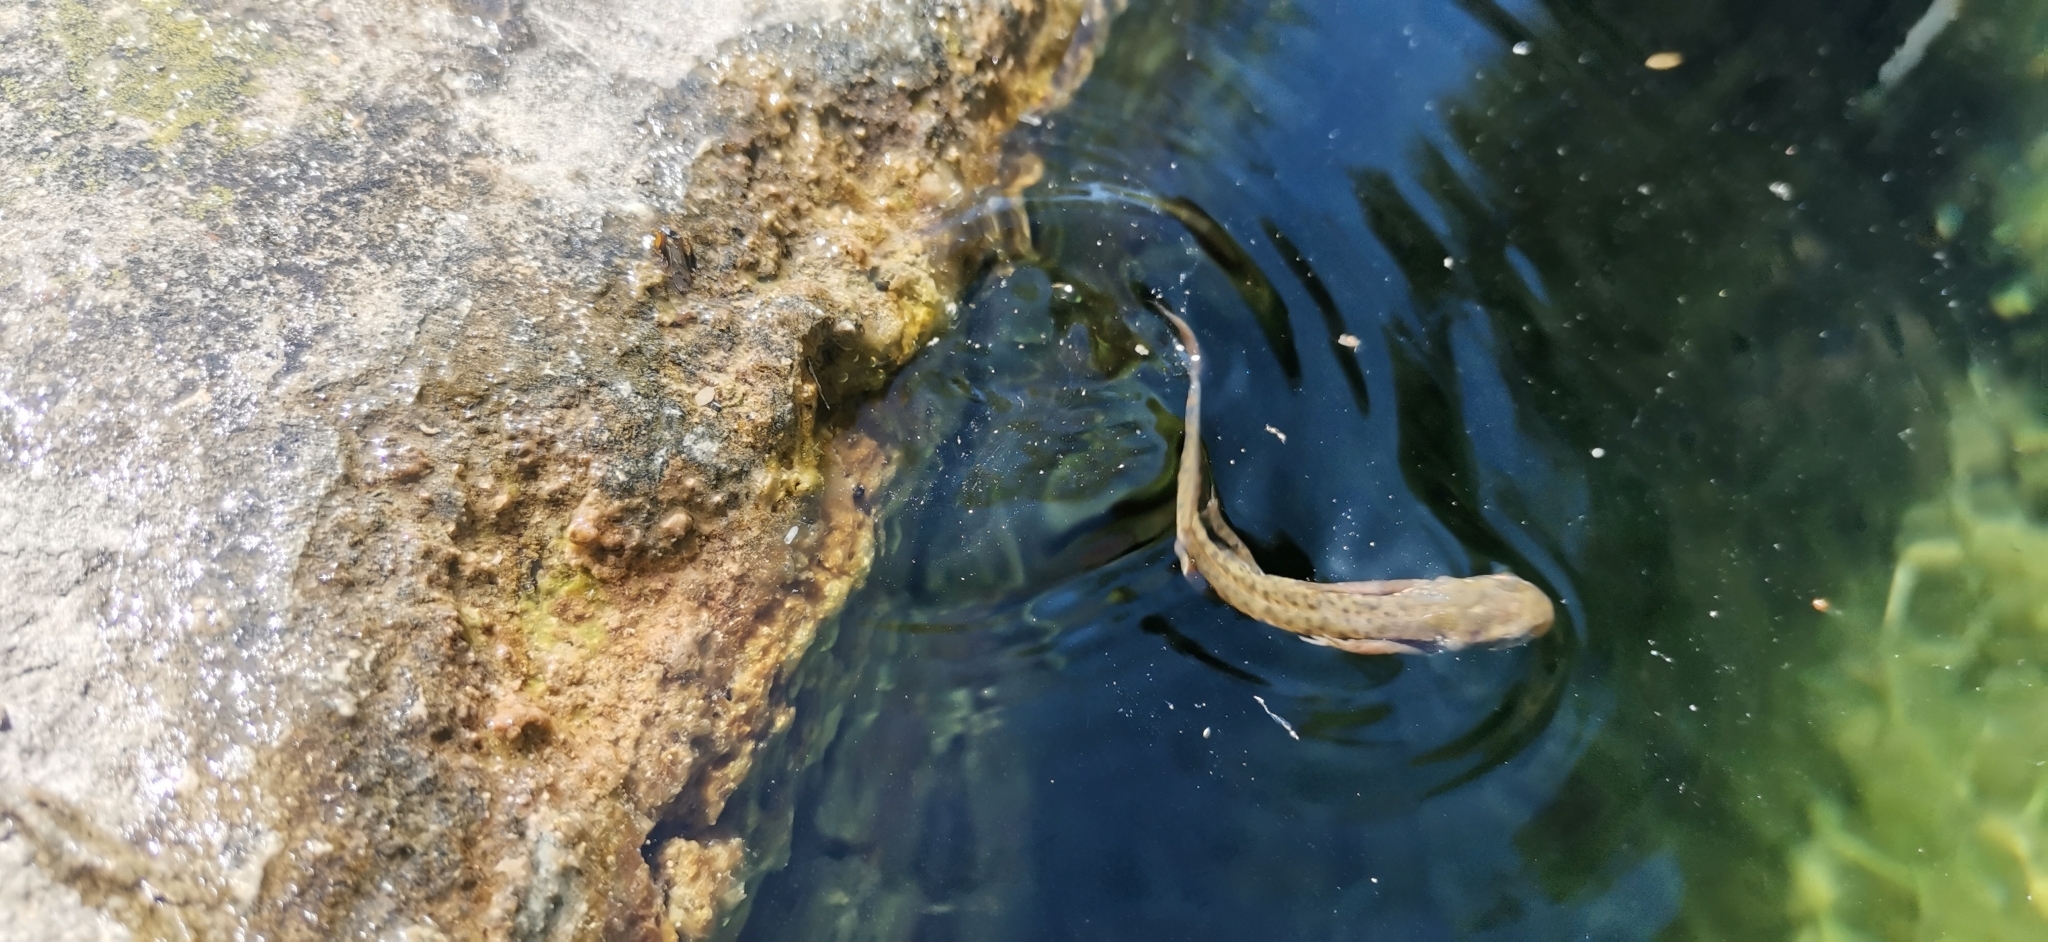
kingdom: Animalia
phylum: Chordata
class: Amphibia
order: Caudata
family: Salamandridae
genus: Lissotriton
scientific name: Lissotriton italicus
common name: Italian newt
